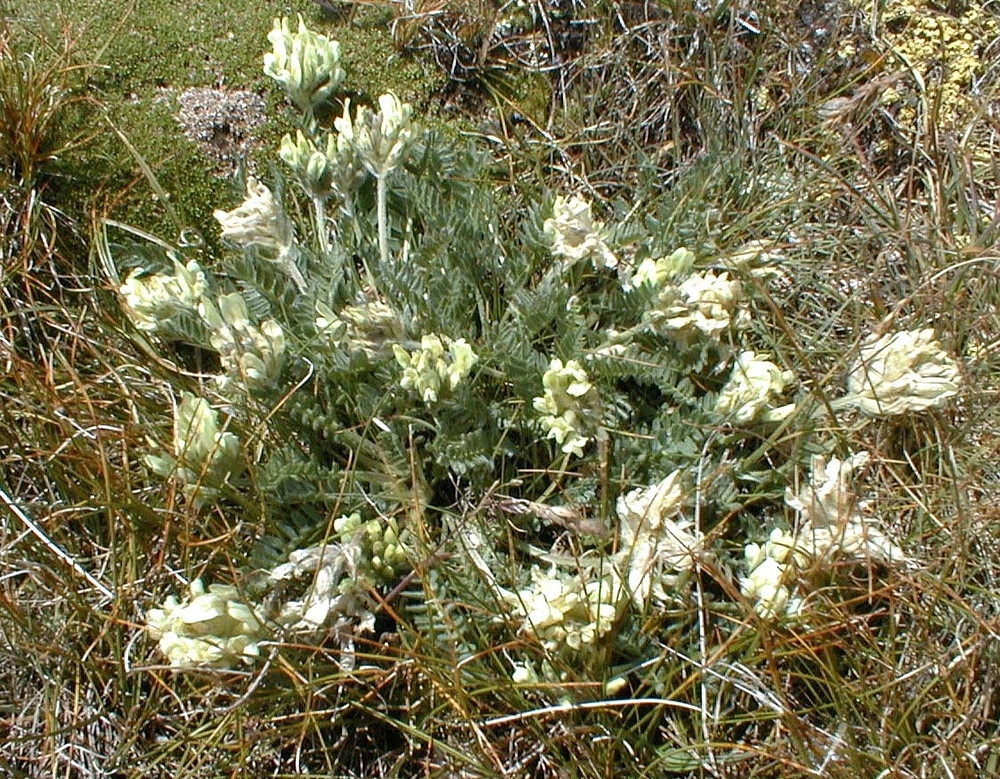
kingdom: Plantae
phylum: Tracheophyta
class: Magnoliopsida
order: Fabales
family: Fabaceae
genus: Oxytropis
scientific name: Oxytropis campestris
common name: Field locoweed
